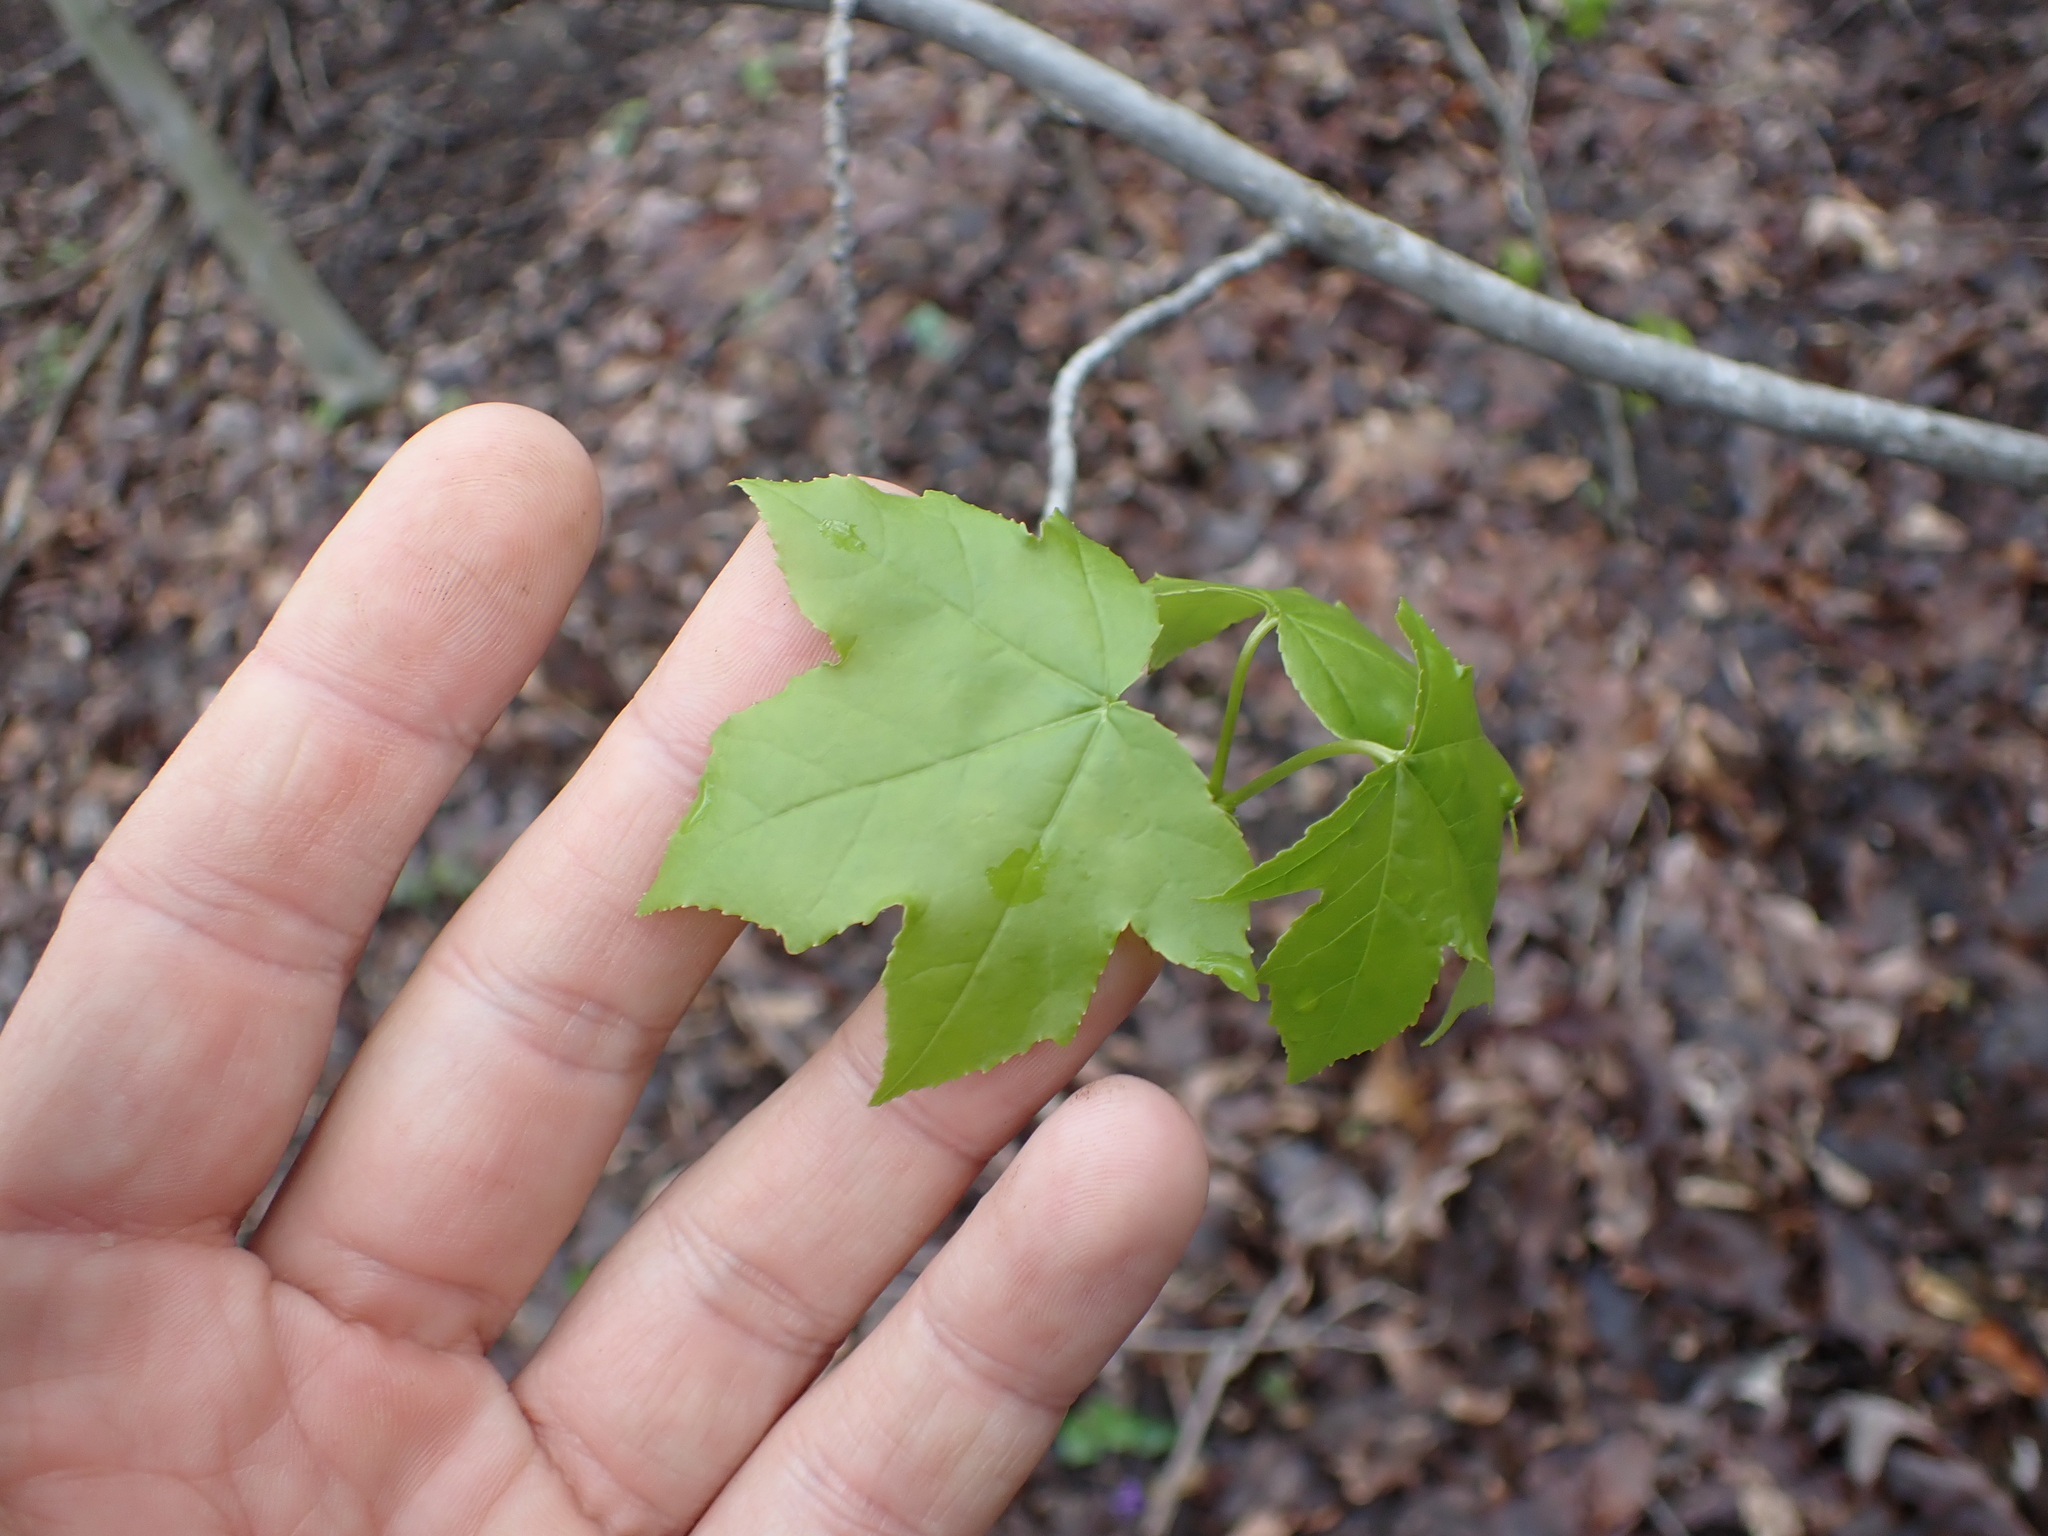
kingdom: Plantae
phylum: Tracheophyta
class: Magnoliopsida
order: Saxifragales
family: Altingiaceae
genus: Liquidambar
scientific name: Liquidambar styraciflua
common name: Sweet gum
